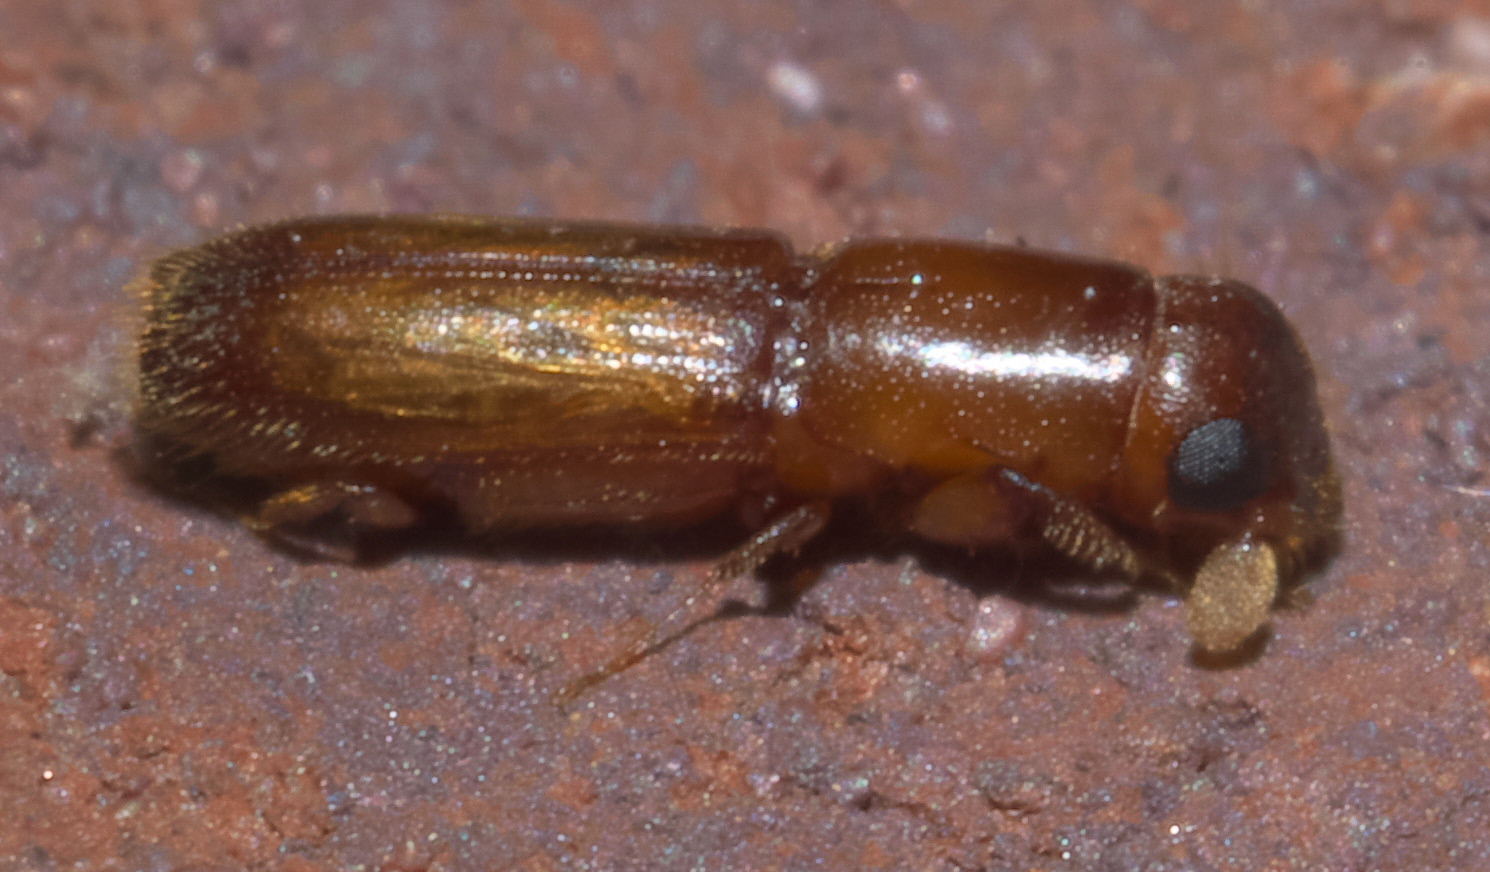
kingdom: Animalia
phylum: Arthropoda
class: Insecta
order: Coleoptera
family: Curculionidae
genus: Euplatypus
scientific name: Euplatypus compositus
